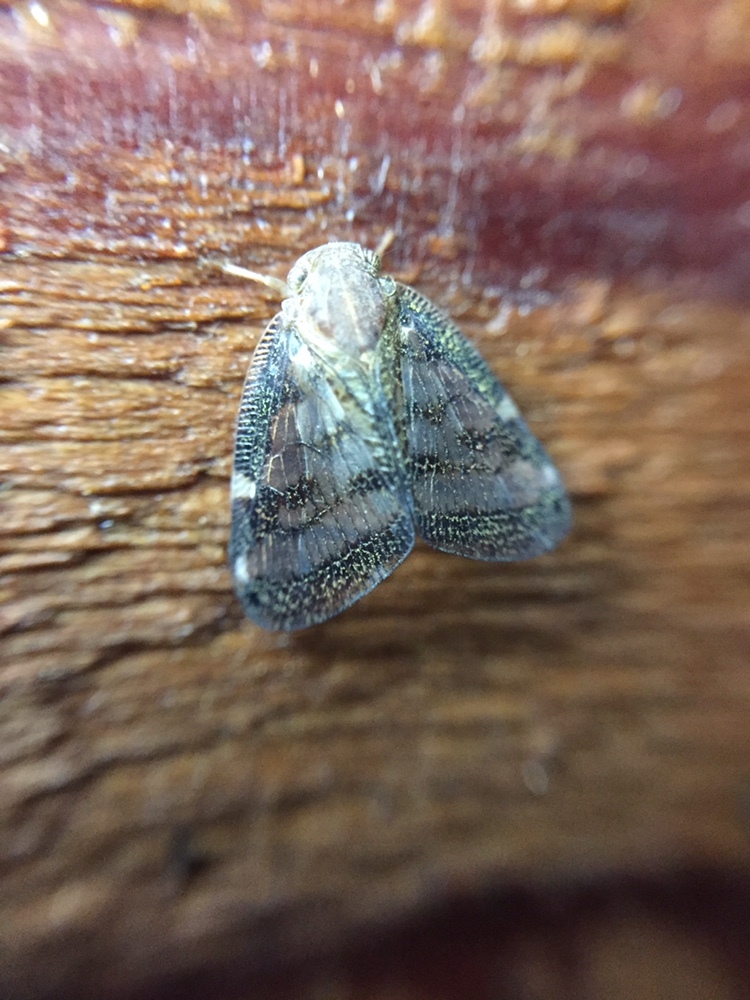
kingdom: Animalia
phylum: Arthropoda
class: Insecta
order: Hemiptera
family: Ricaniidae
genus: Scolypopa
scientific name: Scolypopa australis
